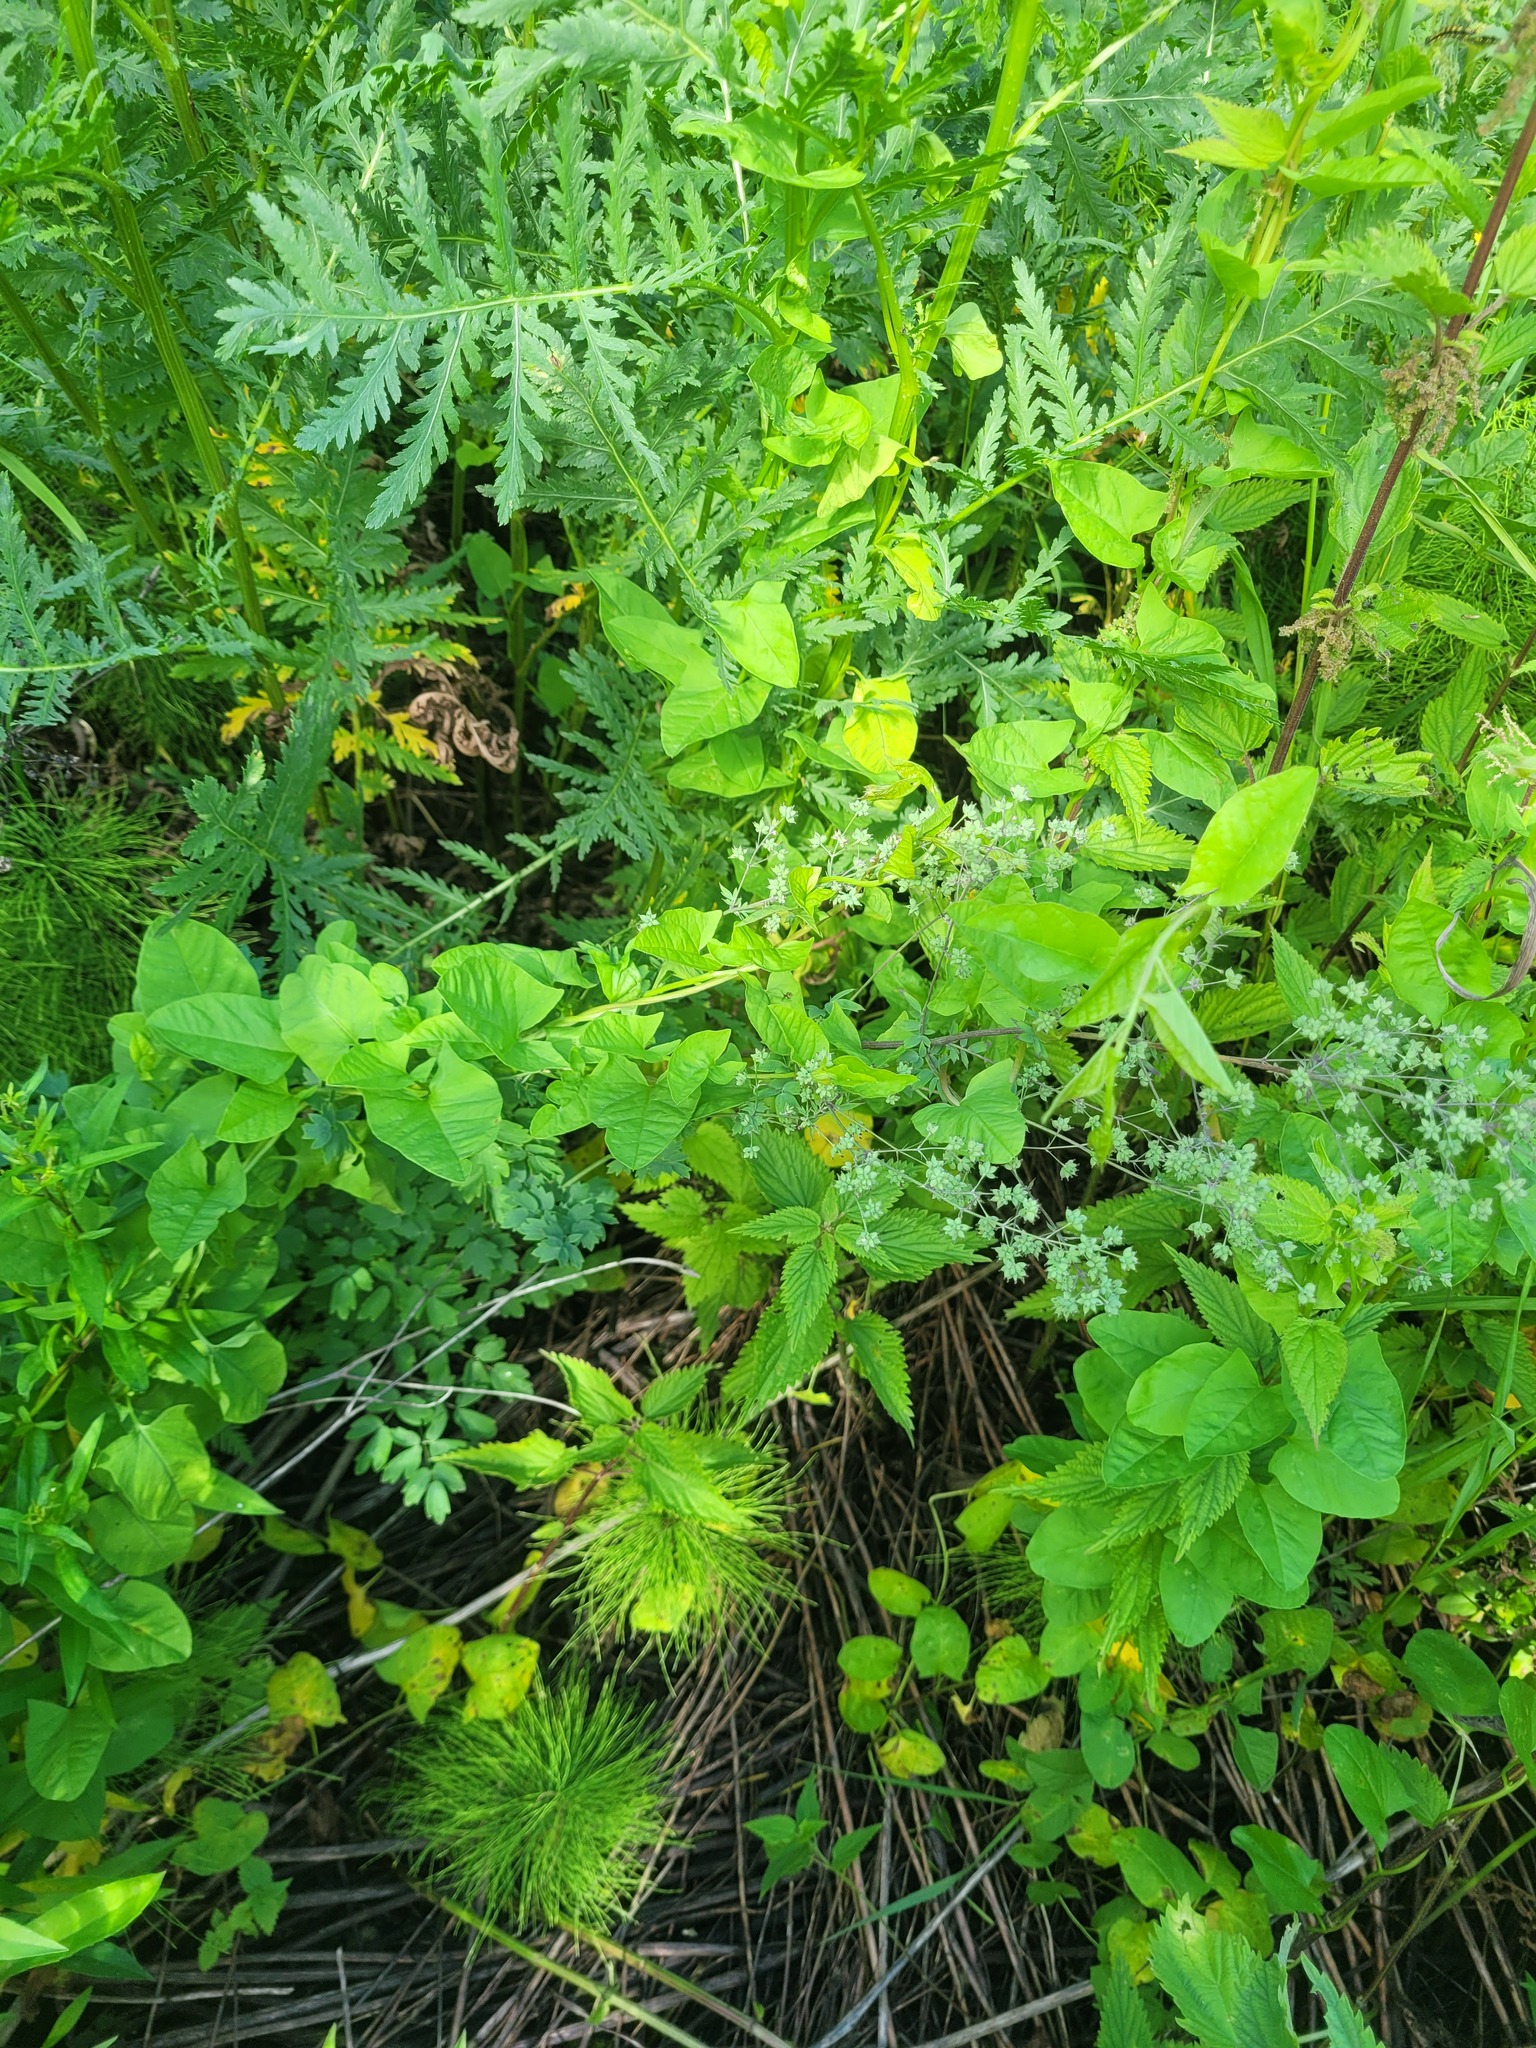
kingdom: Plantae
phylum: Tracheophyta
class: Magnoliopsida
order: Ranunculales
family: Ranunculaceae
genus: Thalictrum
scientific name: Thalictrum flavum
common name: Common meadow-rue
